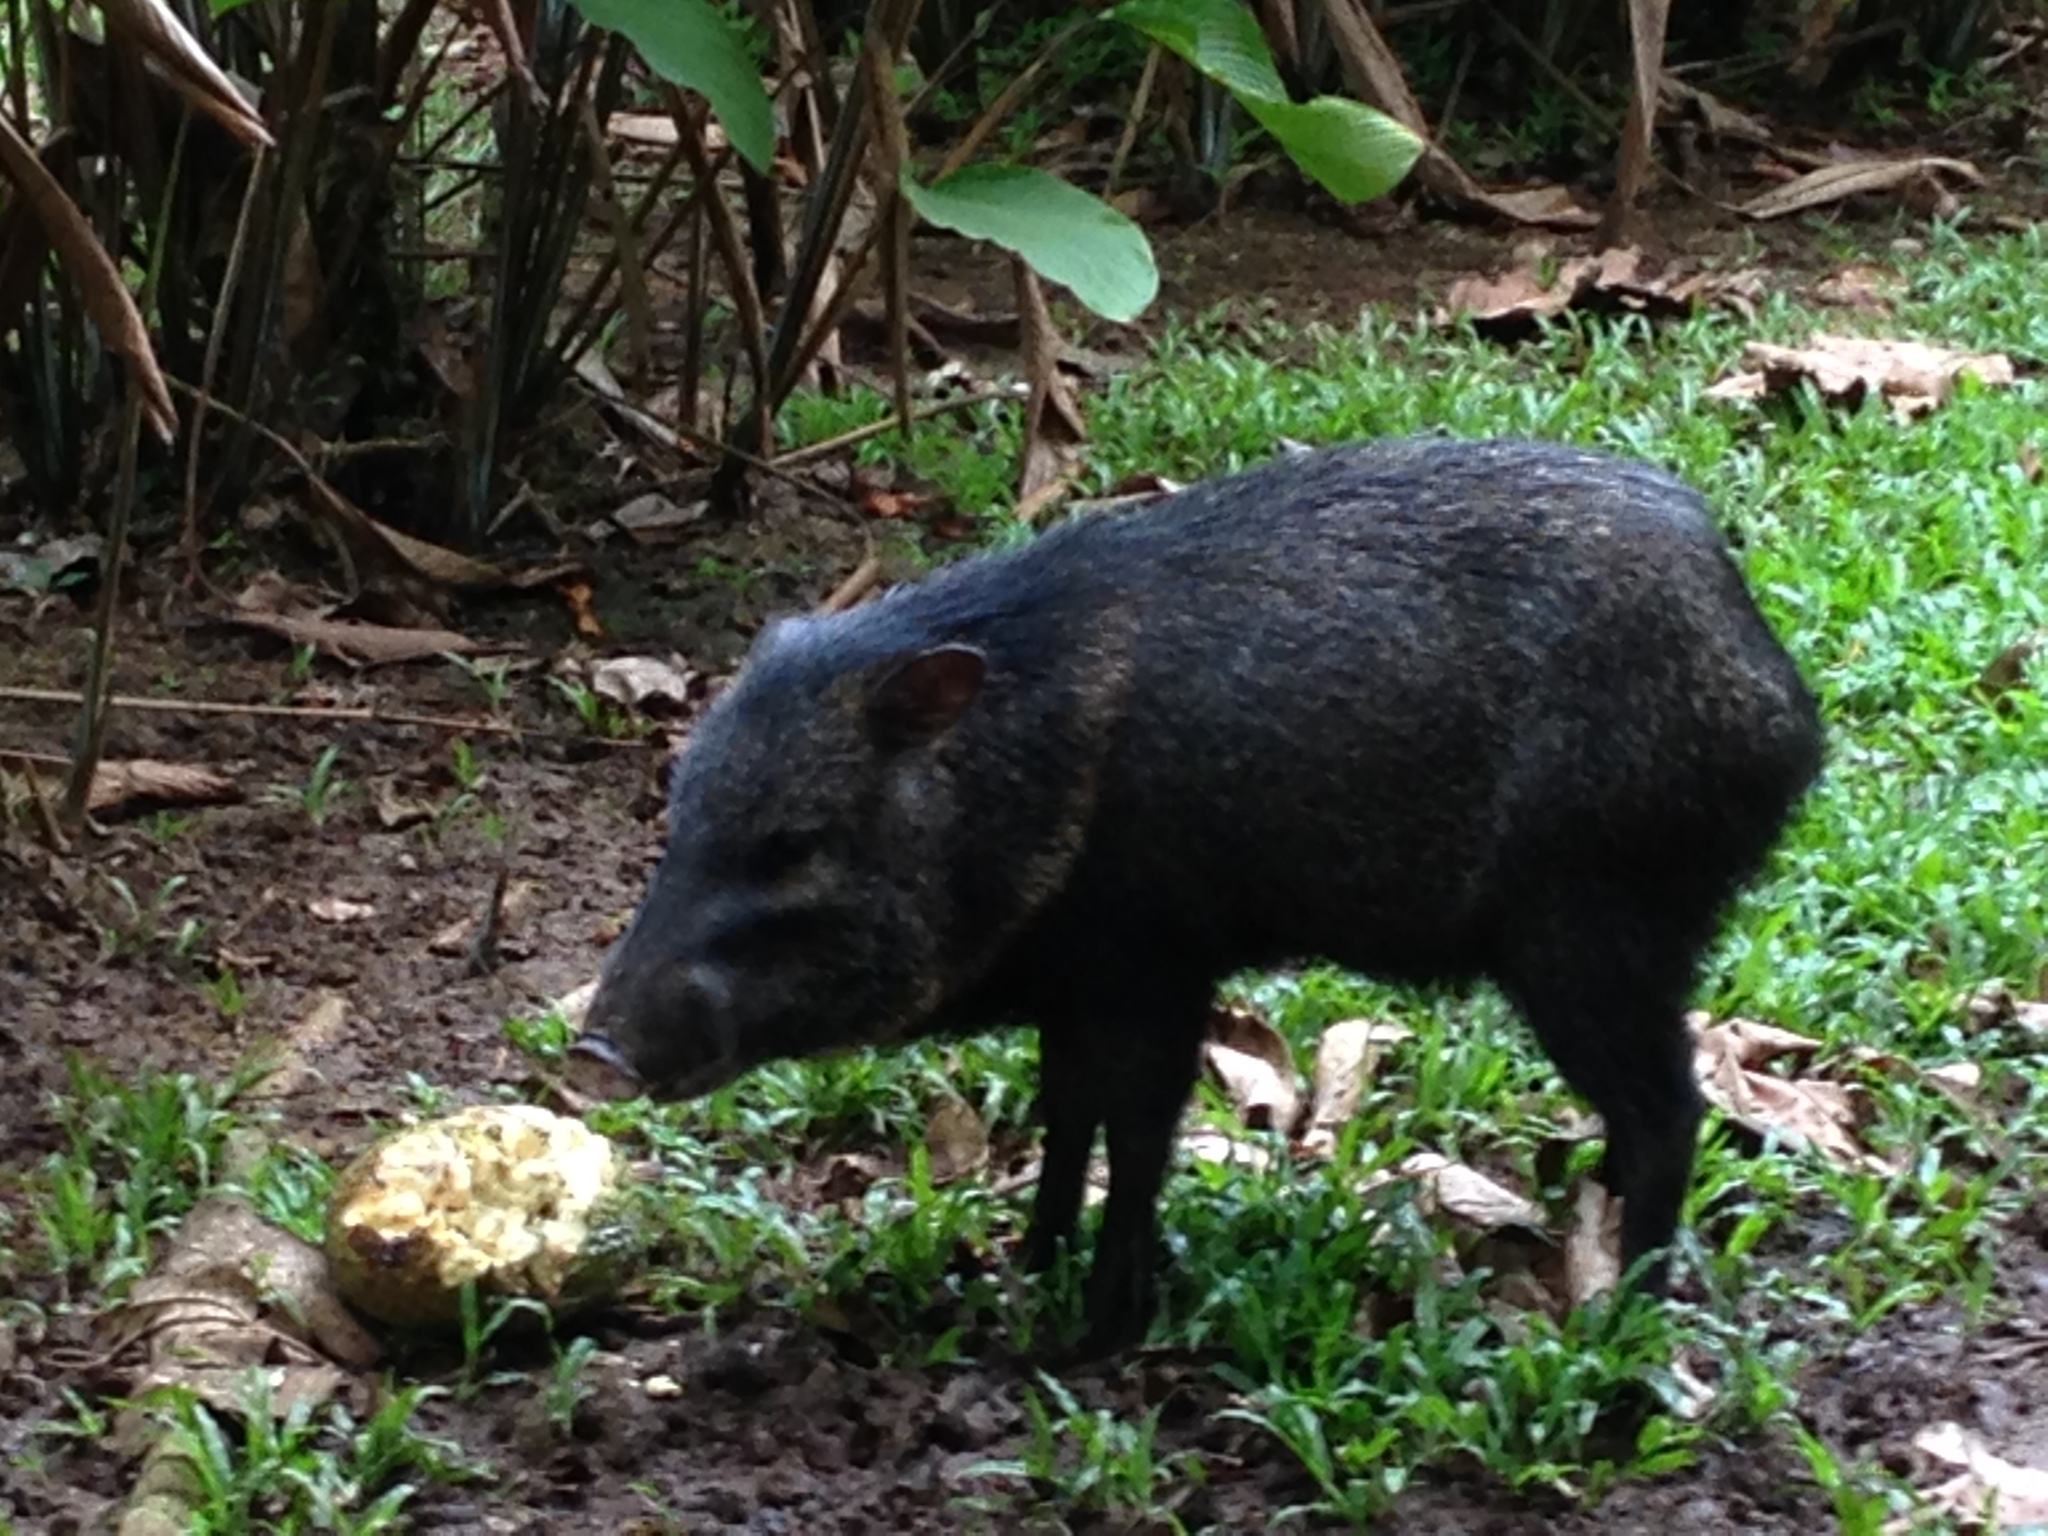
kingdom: Animalia
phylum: Chordata
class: Mammalia
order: Artiodactyla
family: Tayassuidae
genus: Pecari
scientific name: Pecari tajacu
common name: Collared peccary
